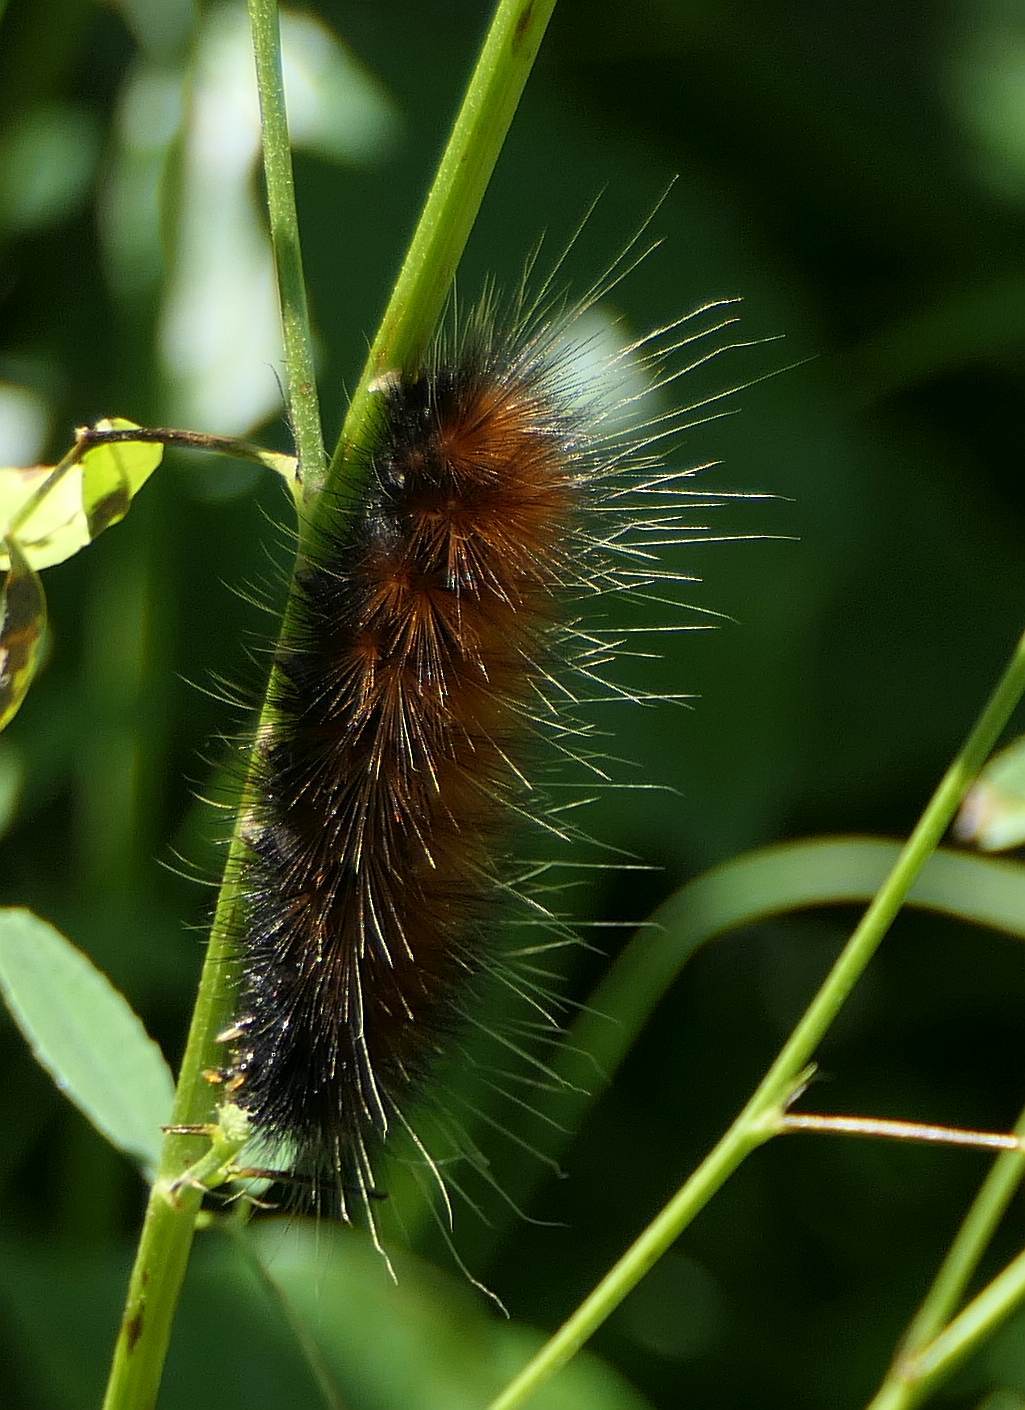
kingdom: Animalia
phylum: Arthropoda
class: Insecta
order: Lepidoptera
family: Erebidae
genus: Spilosoma
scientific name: Spilosoma virginica
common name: Virginia tiger moth
